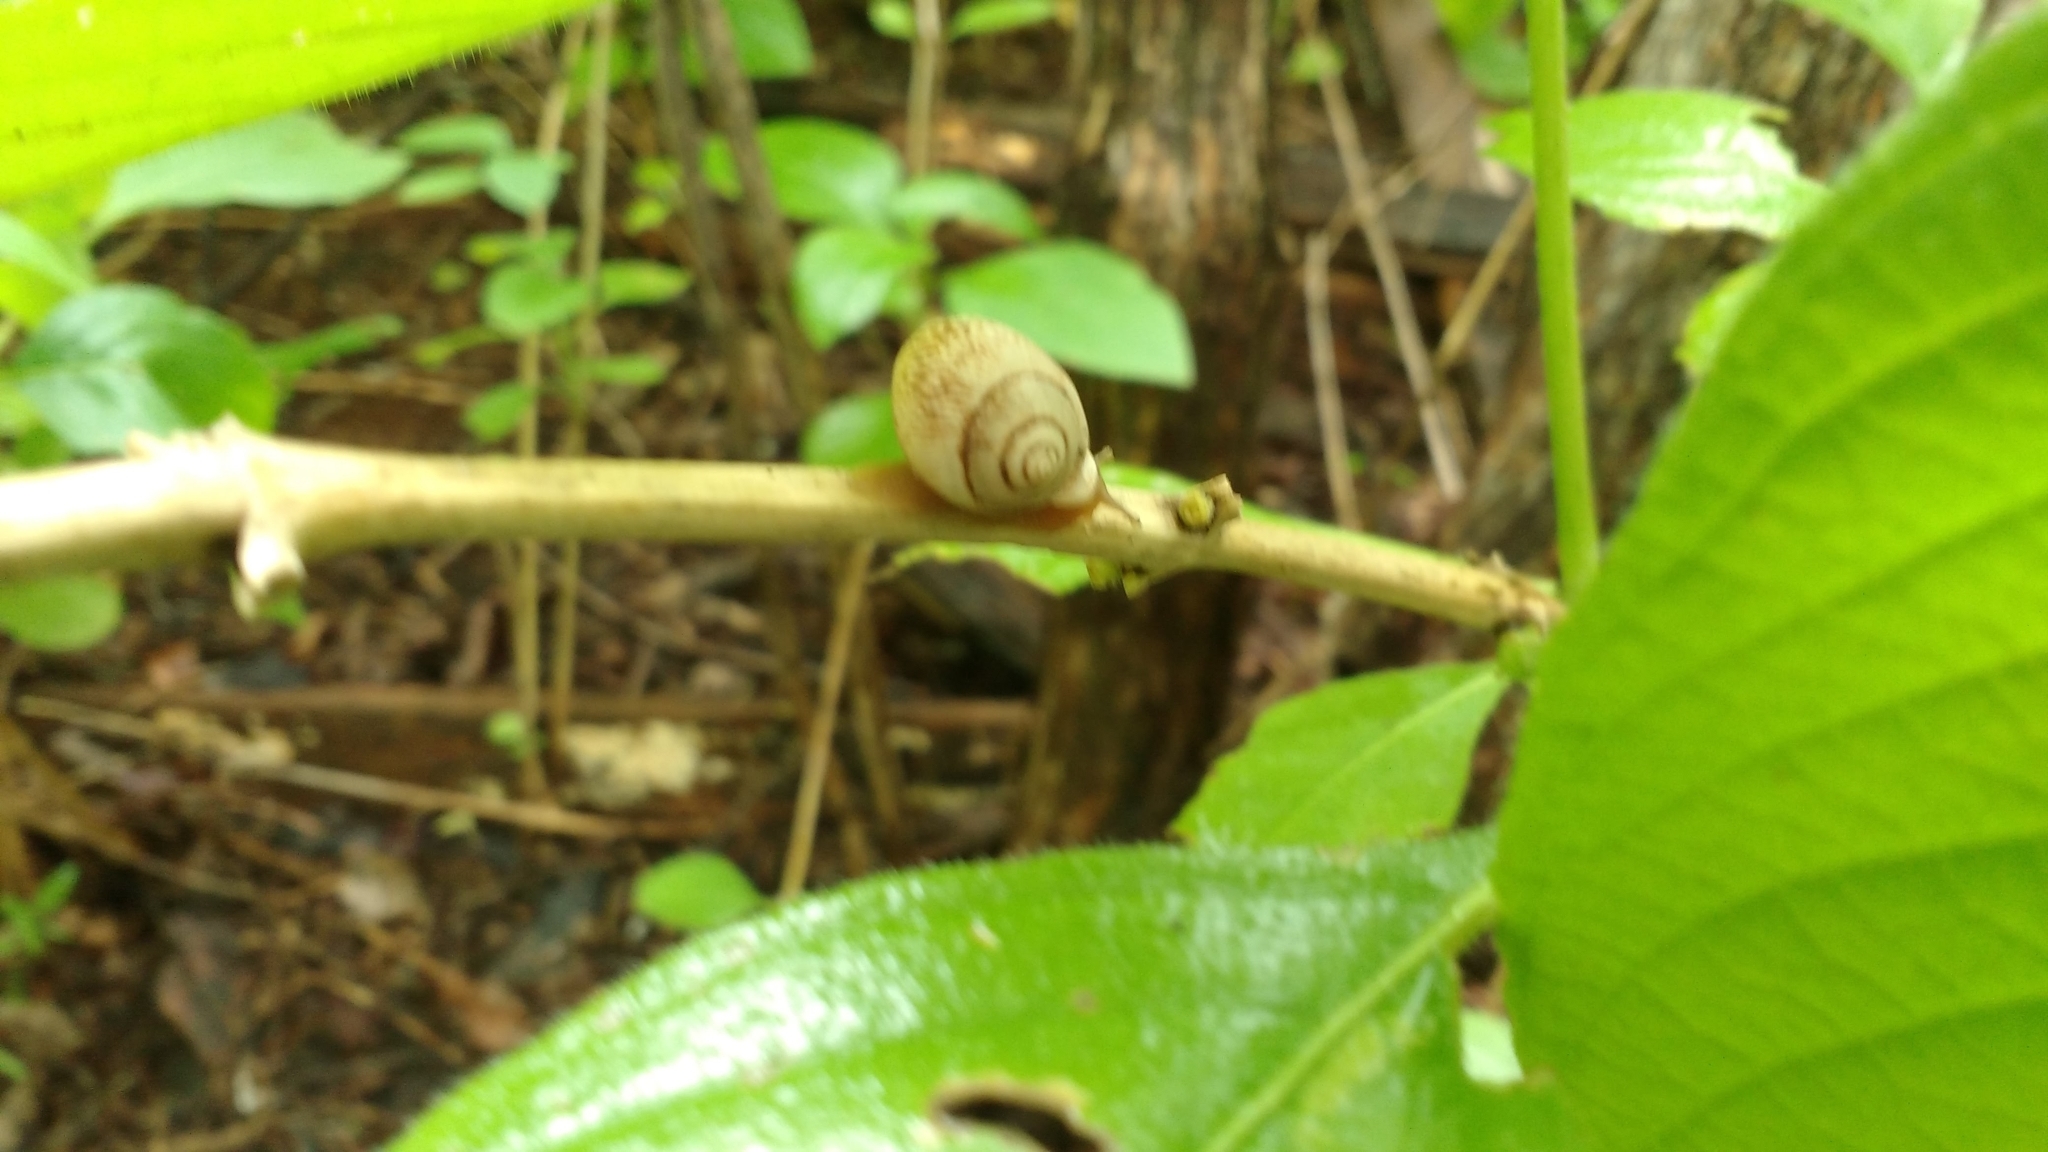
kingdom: Animalia
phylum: Mollusca
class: Gastropoda
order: Stylommatophora
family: Odontostomidae
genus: Tomigerus
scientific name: Tomigerus pilsbryi
